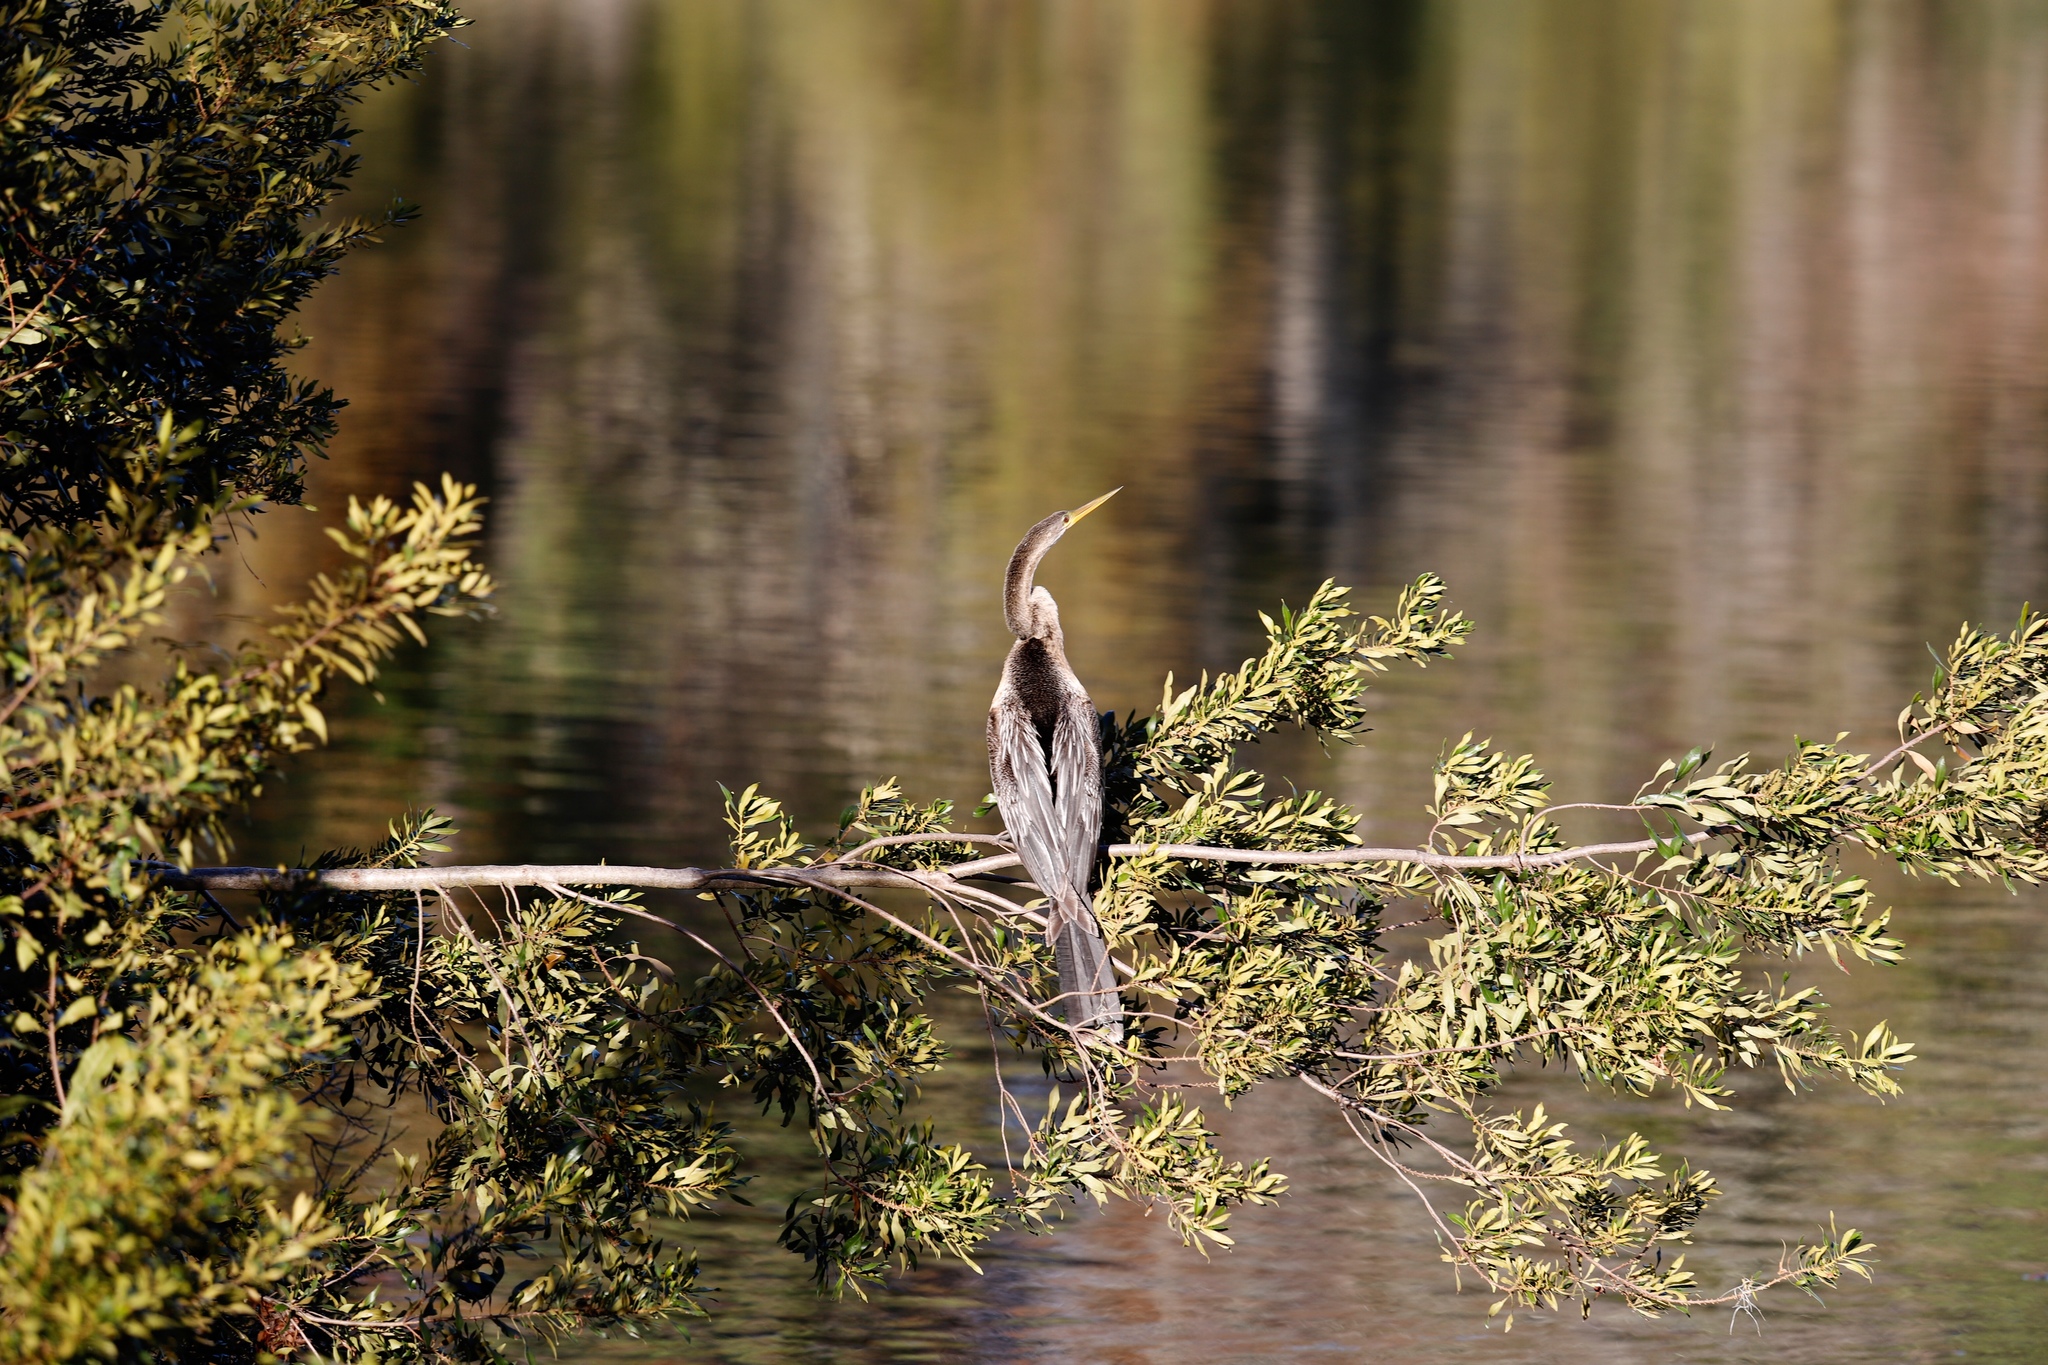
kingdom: Animalia
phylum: Chordata
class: Aves
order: Suliformes
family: Anhingidae
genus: Anhinga
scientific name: Anhinga anhinga
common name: Anhinga
